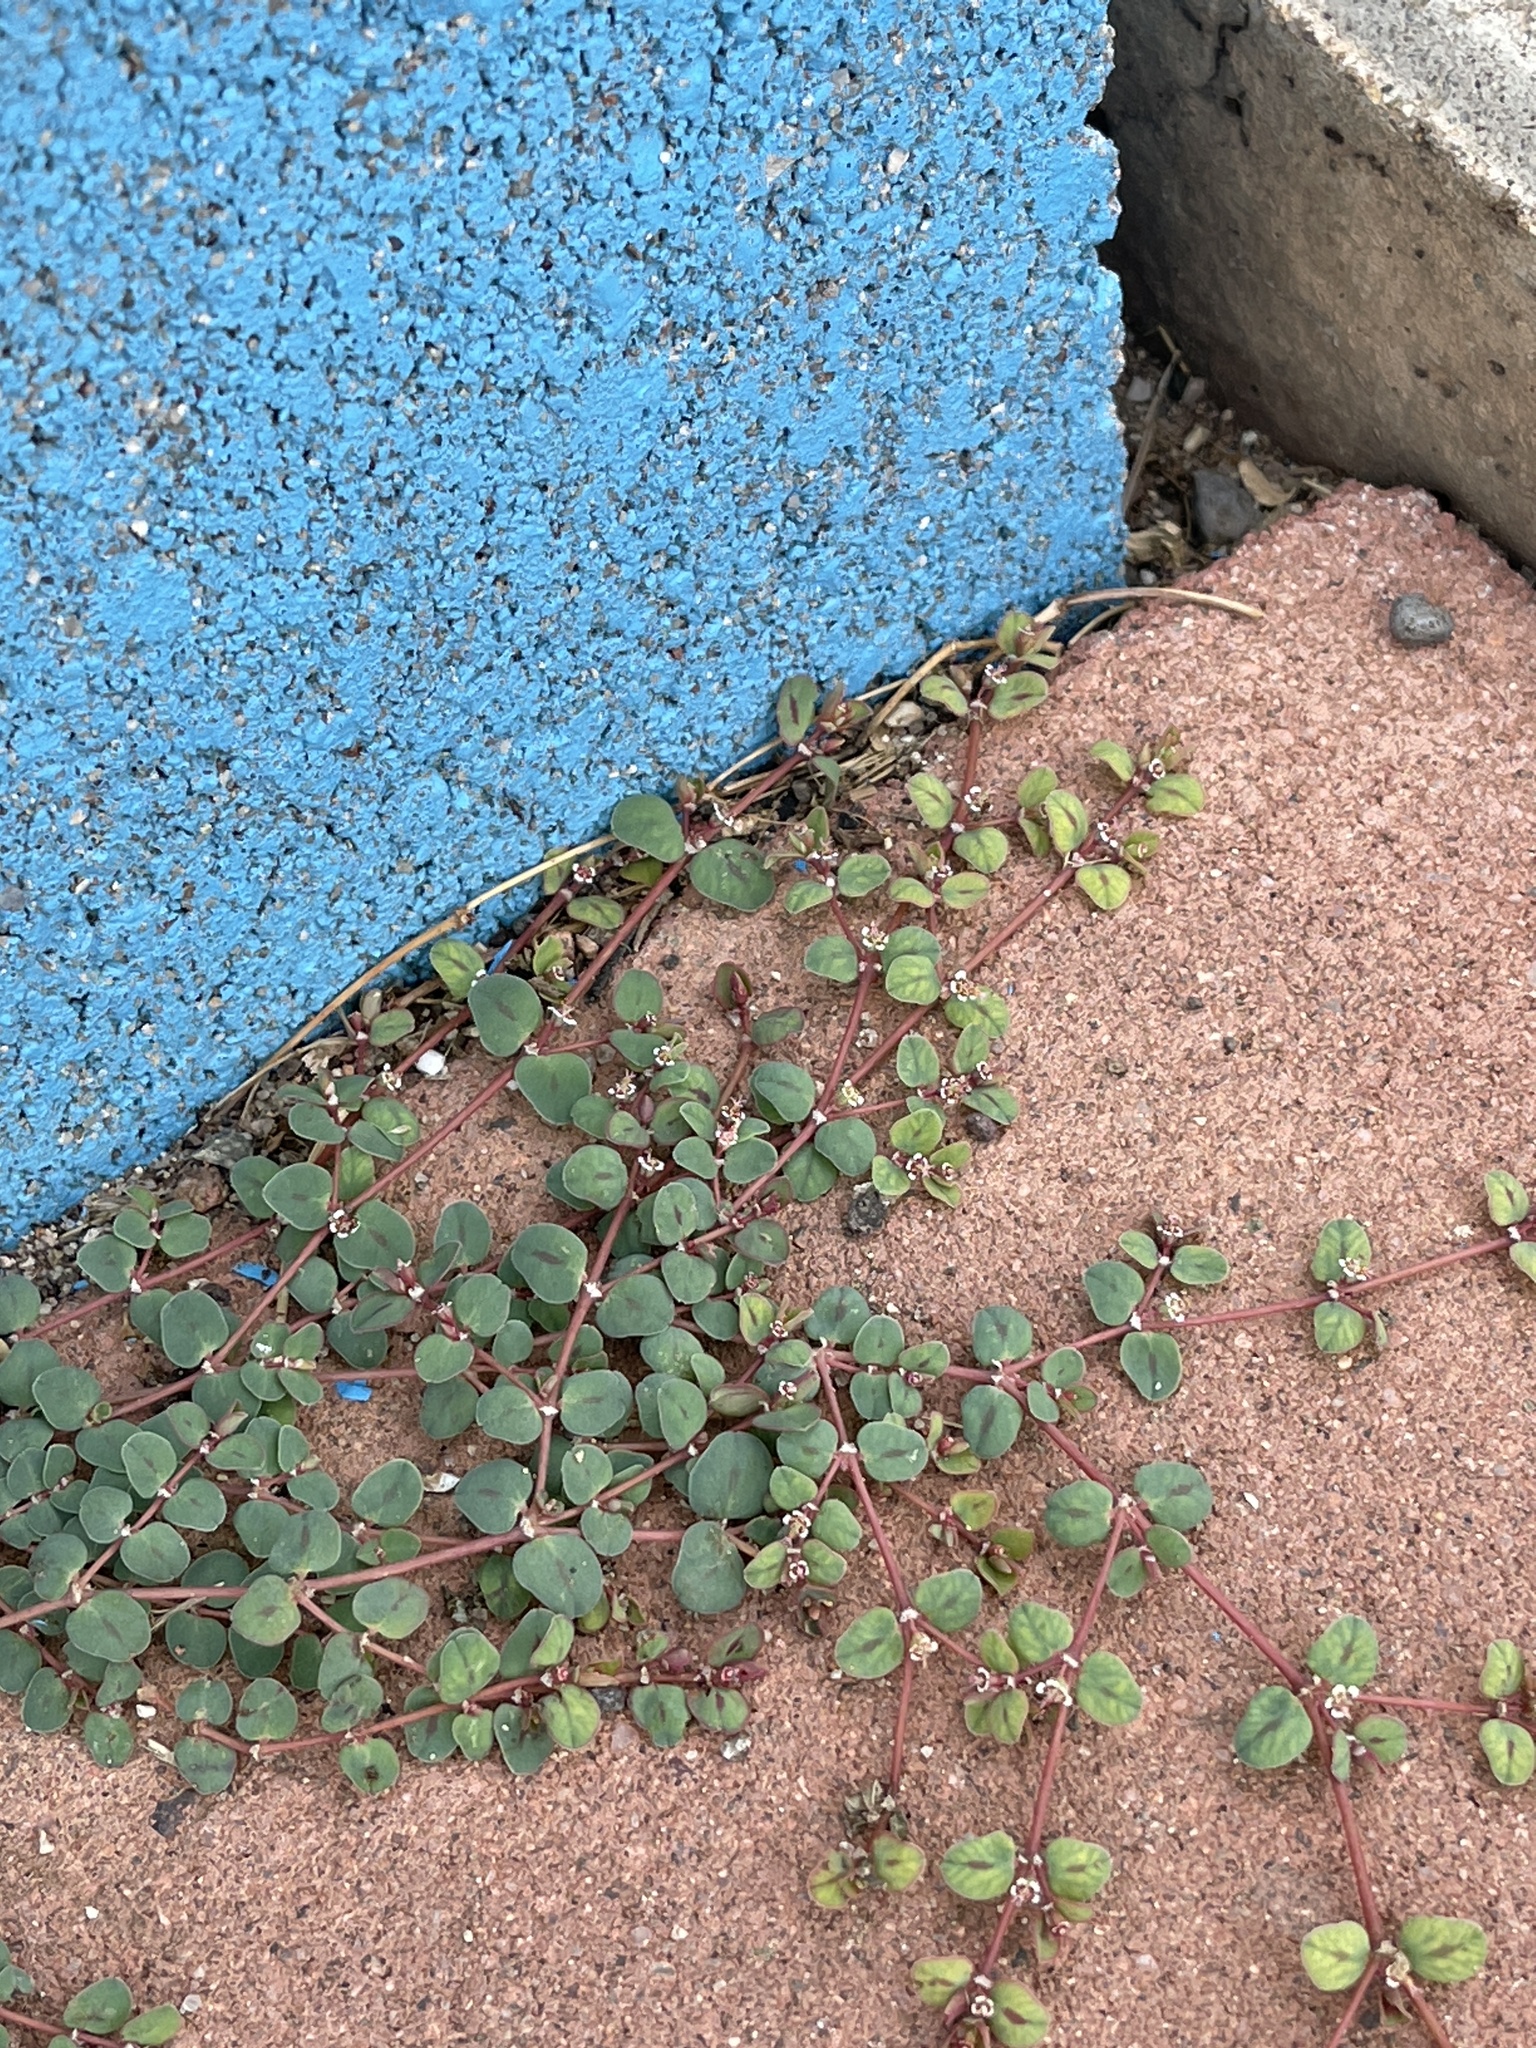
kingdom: Plantae
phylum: Tracheophyta
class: Magnoliopsida
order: Malpighiales
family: Euphorbiaceae
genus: Euphorbia
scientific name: Euphorbia albomarginata
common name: Whitemargin sandmat
